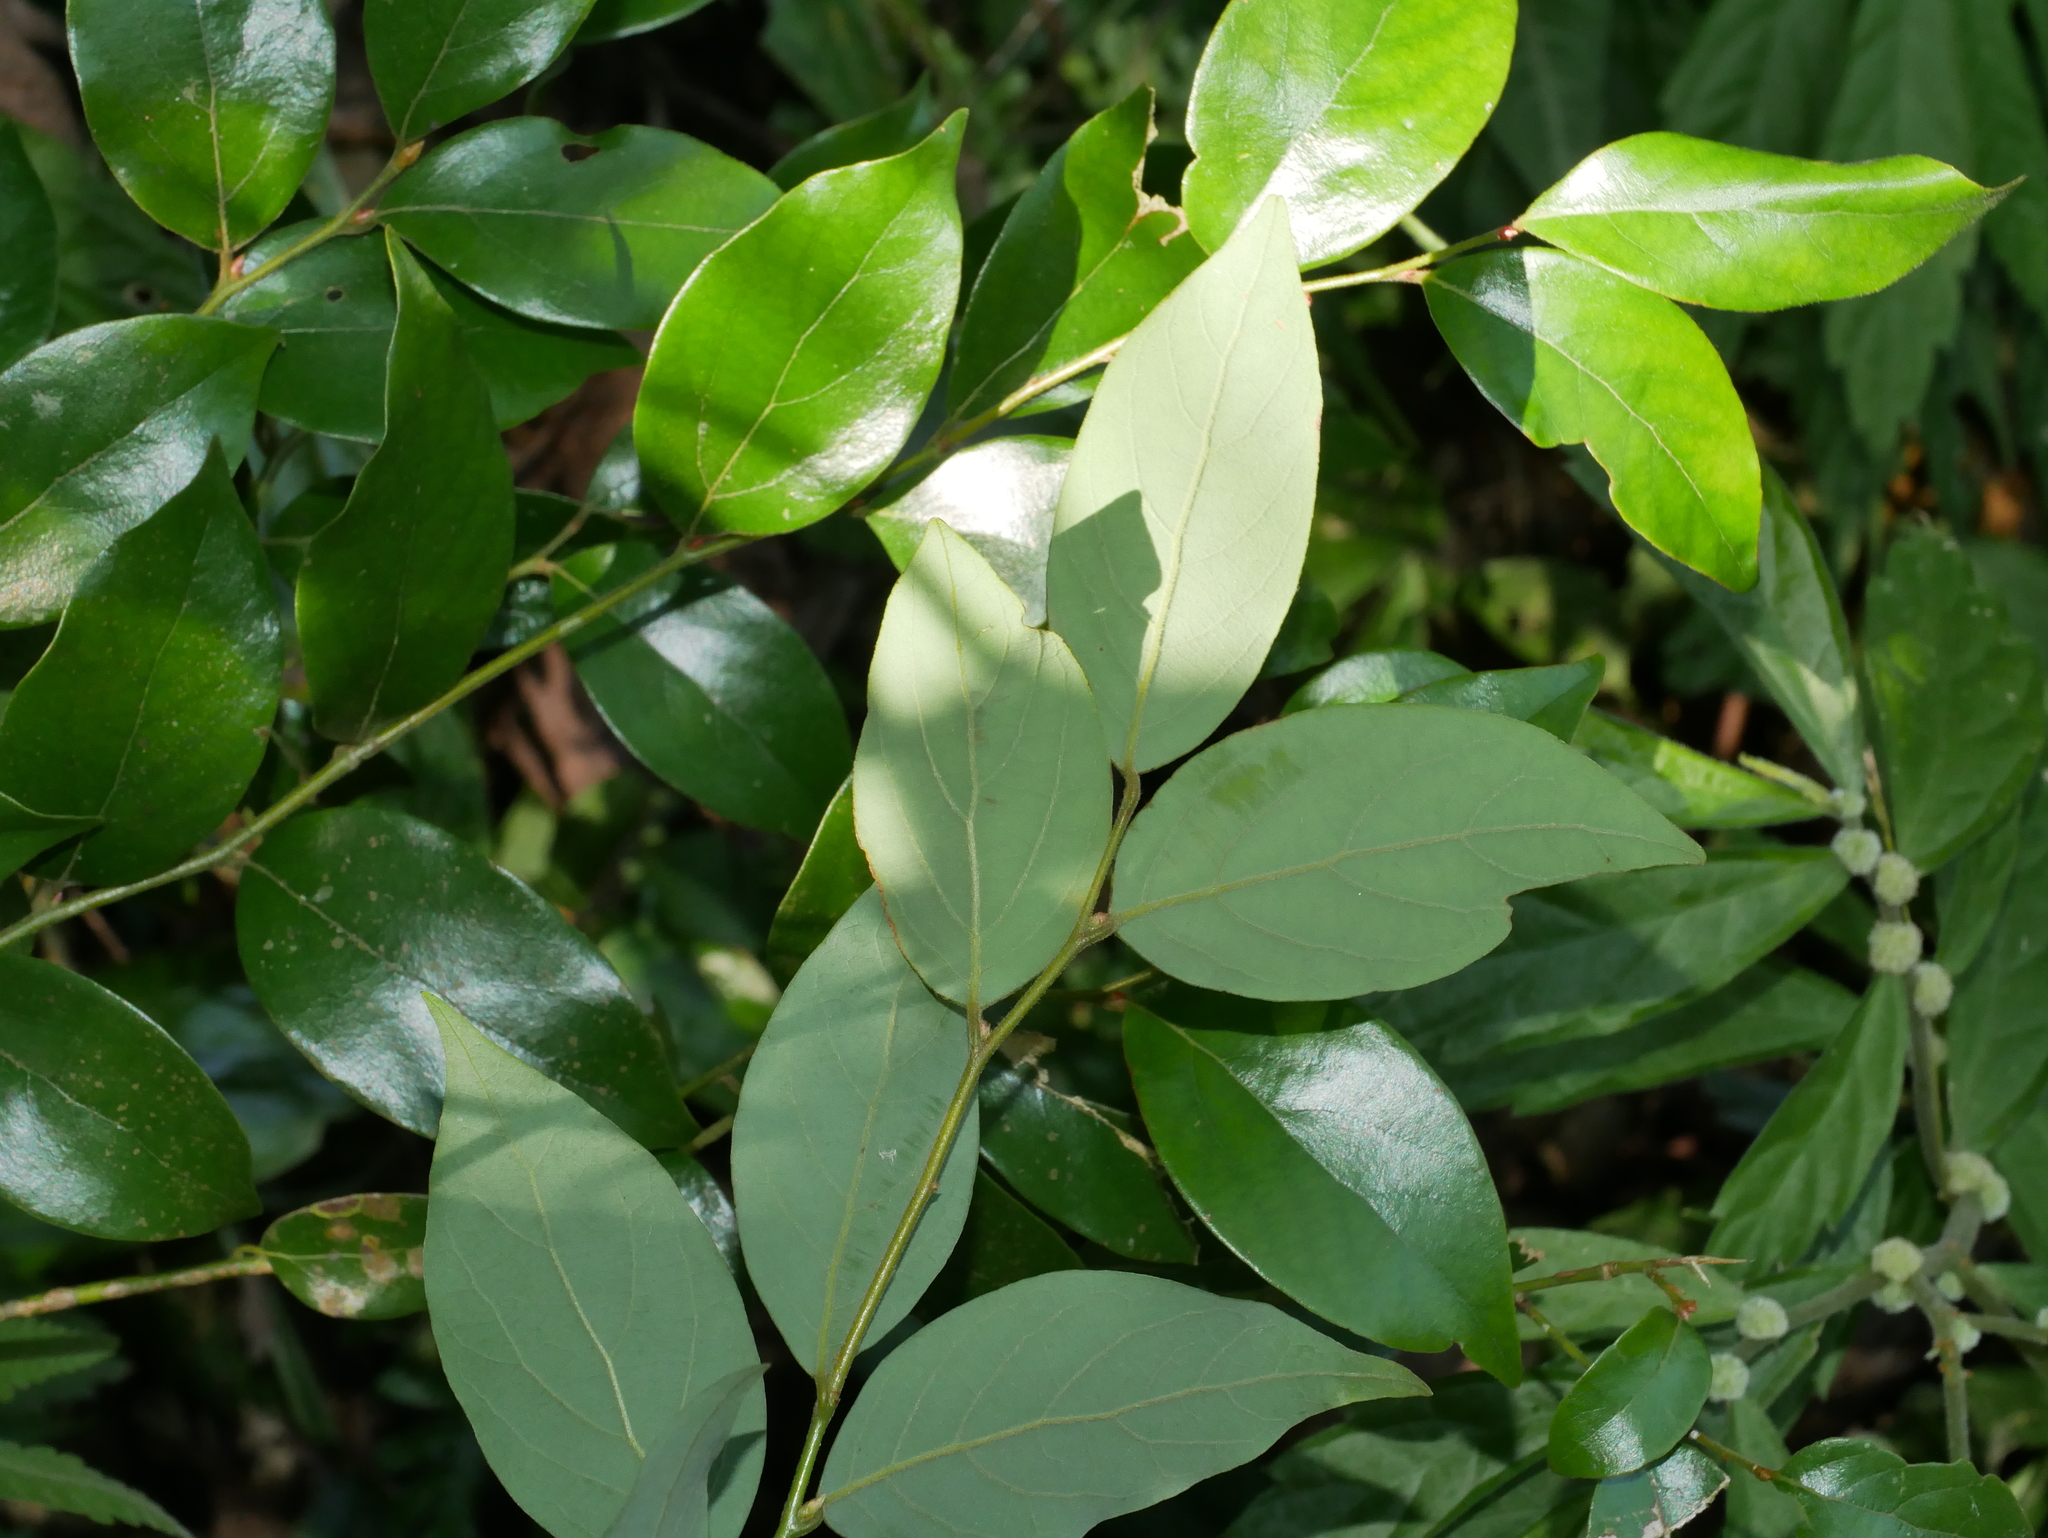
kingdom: Plantae
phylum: Tracheophyta
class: Magnoliopsida
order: Laurales
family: Lauraceae
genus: Lindera
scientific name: Lindera communis
